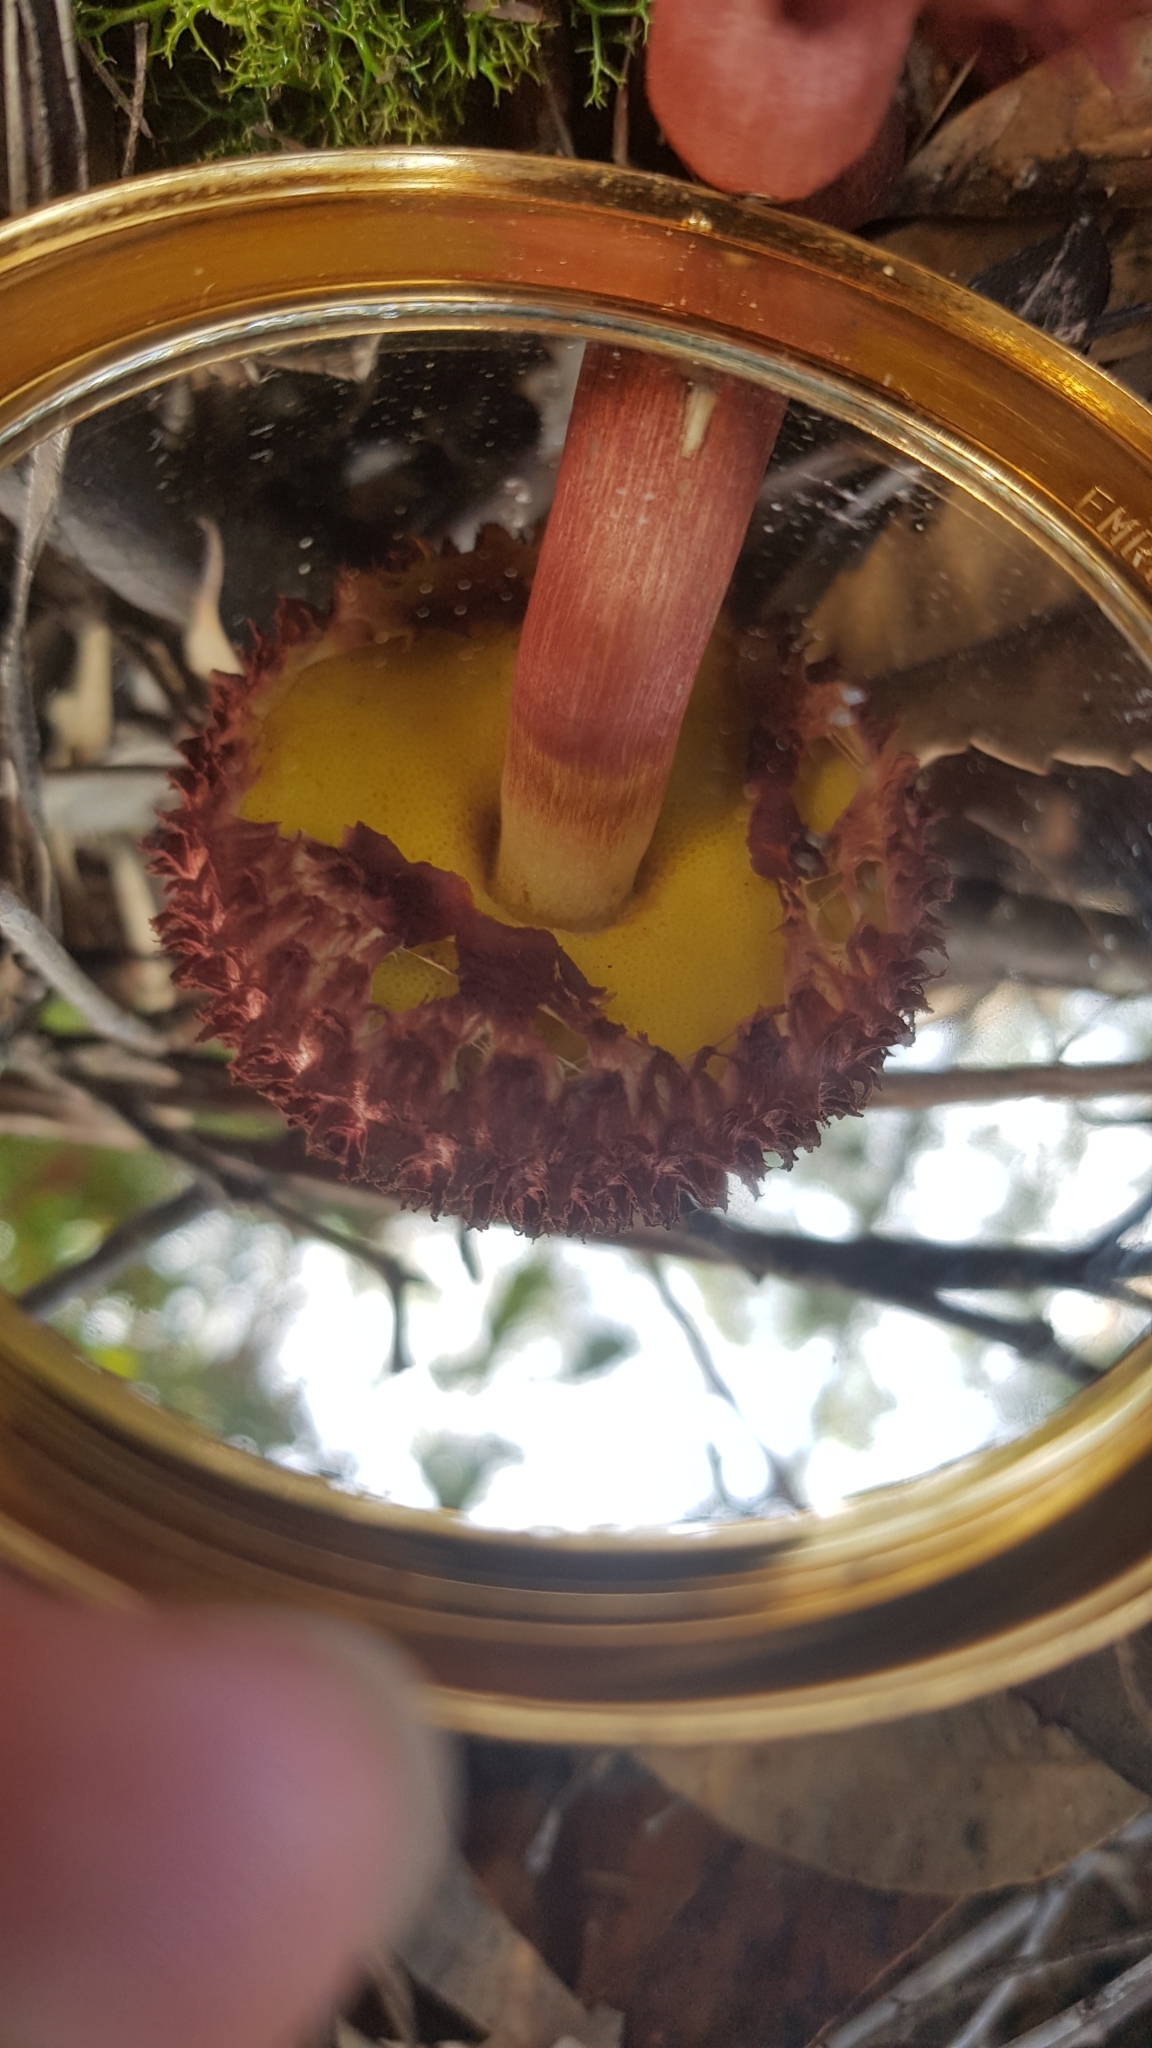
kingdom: Fungi
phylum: Basidiomycota
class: Agaricomycetes
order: Boletales
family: Boletaceae
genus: Boletellus
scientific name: Boletellus emodensis
